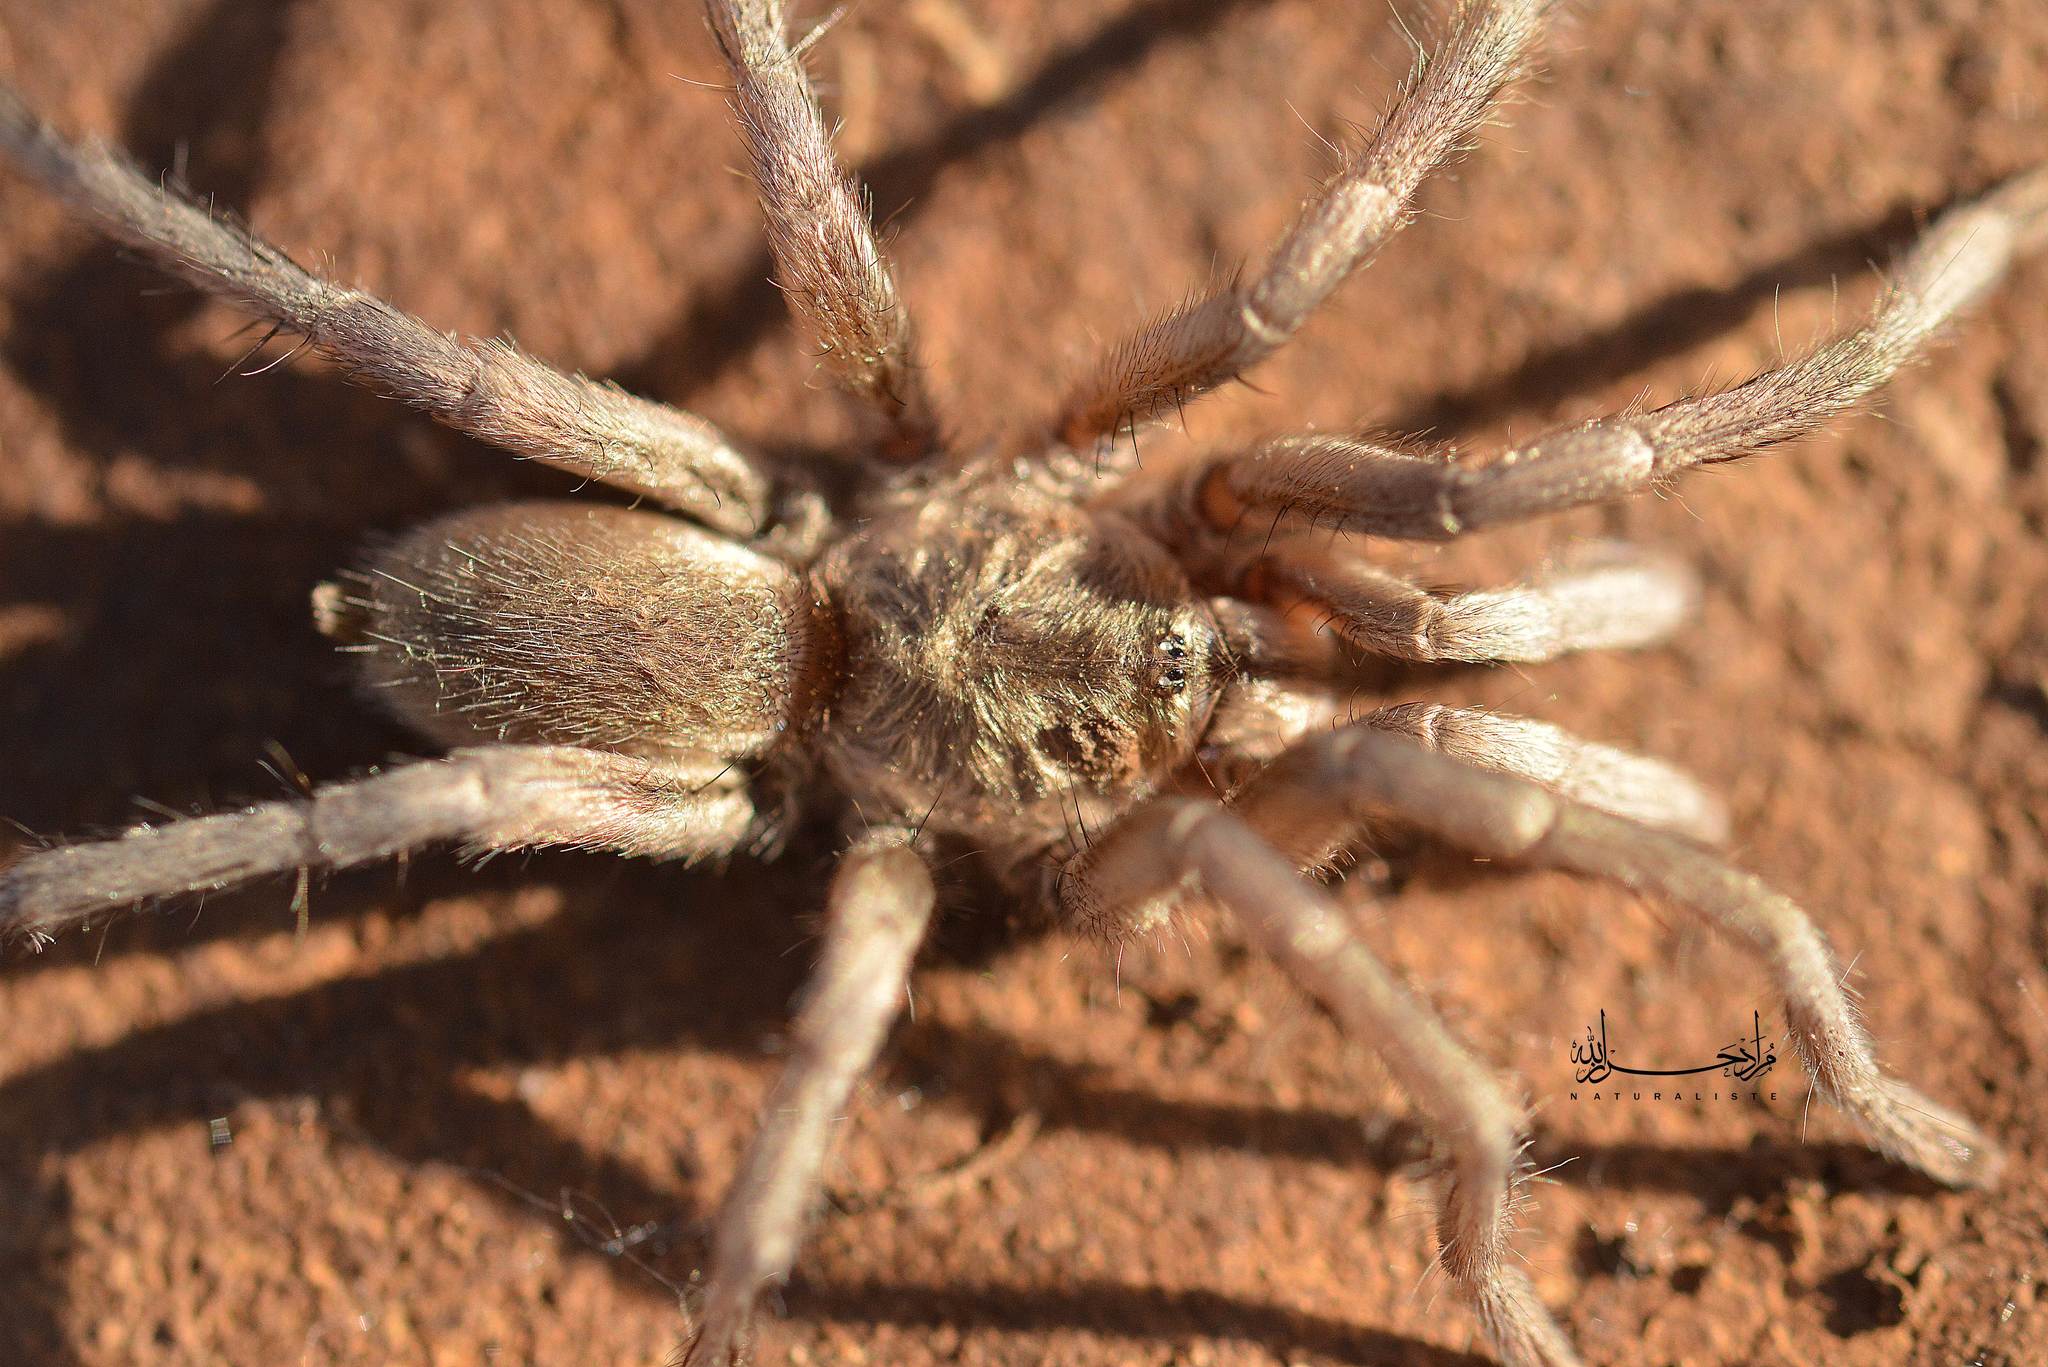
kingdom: Animalia
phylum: Arthropoda
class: Arachnida
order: Araneae
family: Theraphosidae
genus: Ischnocolus
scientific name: Ischnocolus valentinus
